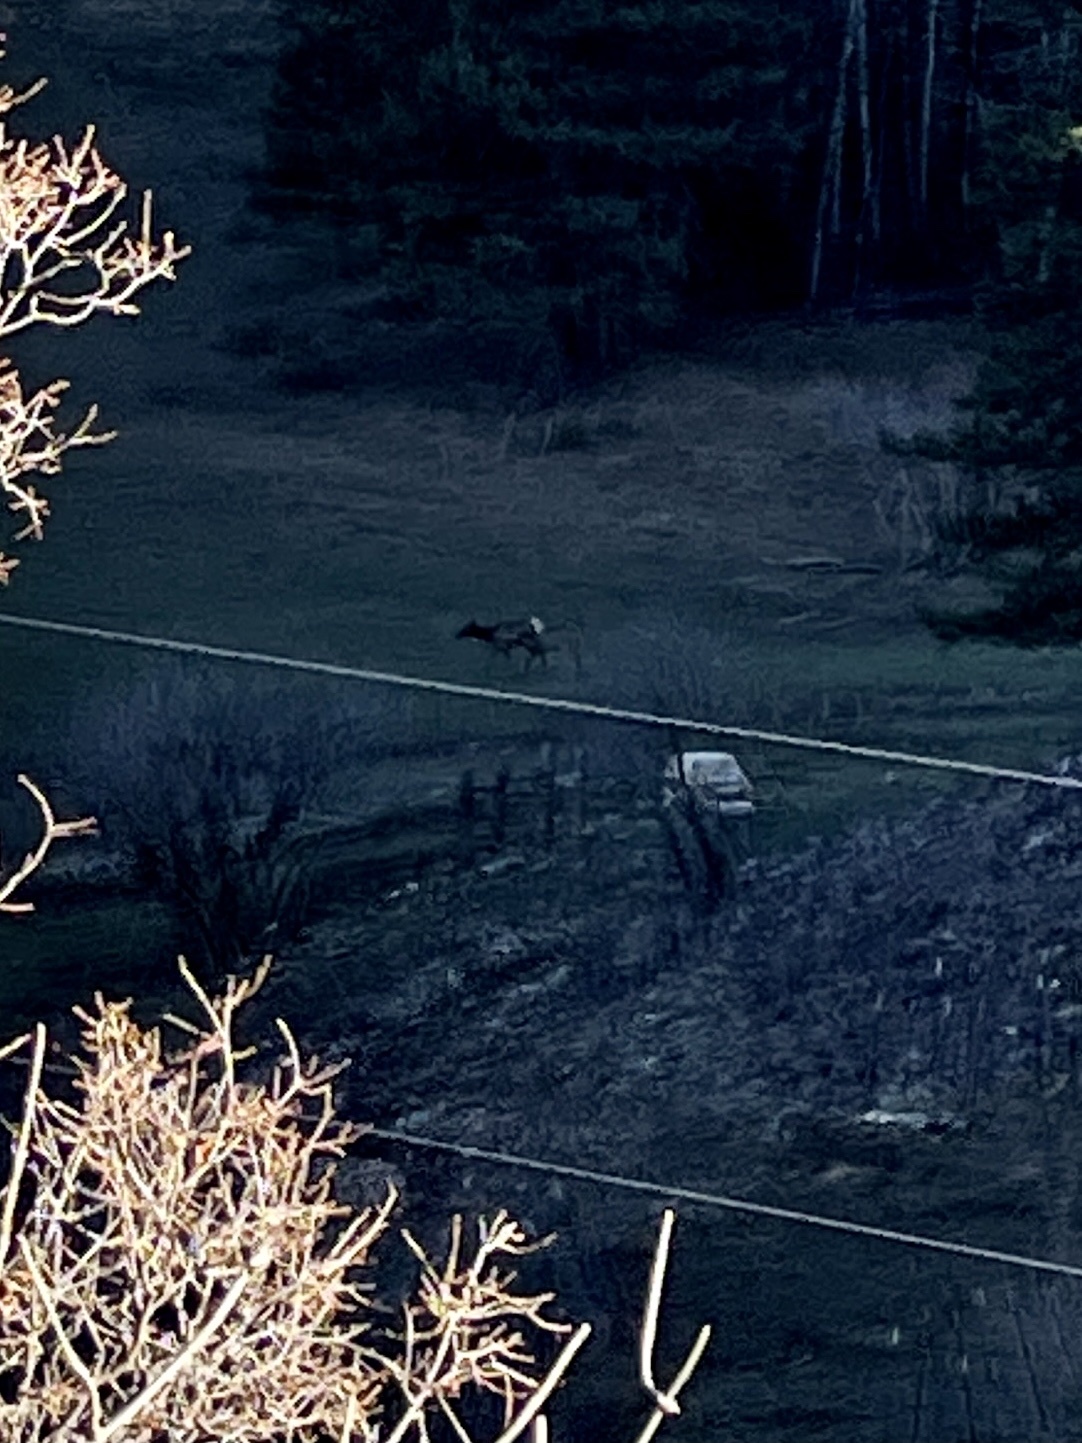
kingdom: Animalia
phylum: Chordata
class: Mammalia
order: Artiodactyla
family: Cervidae
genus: Cervus
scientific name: Cervus elaphus
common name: Red deer
